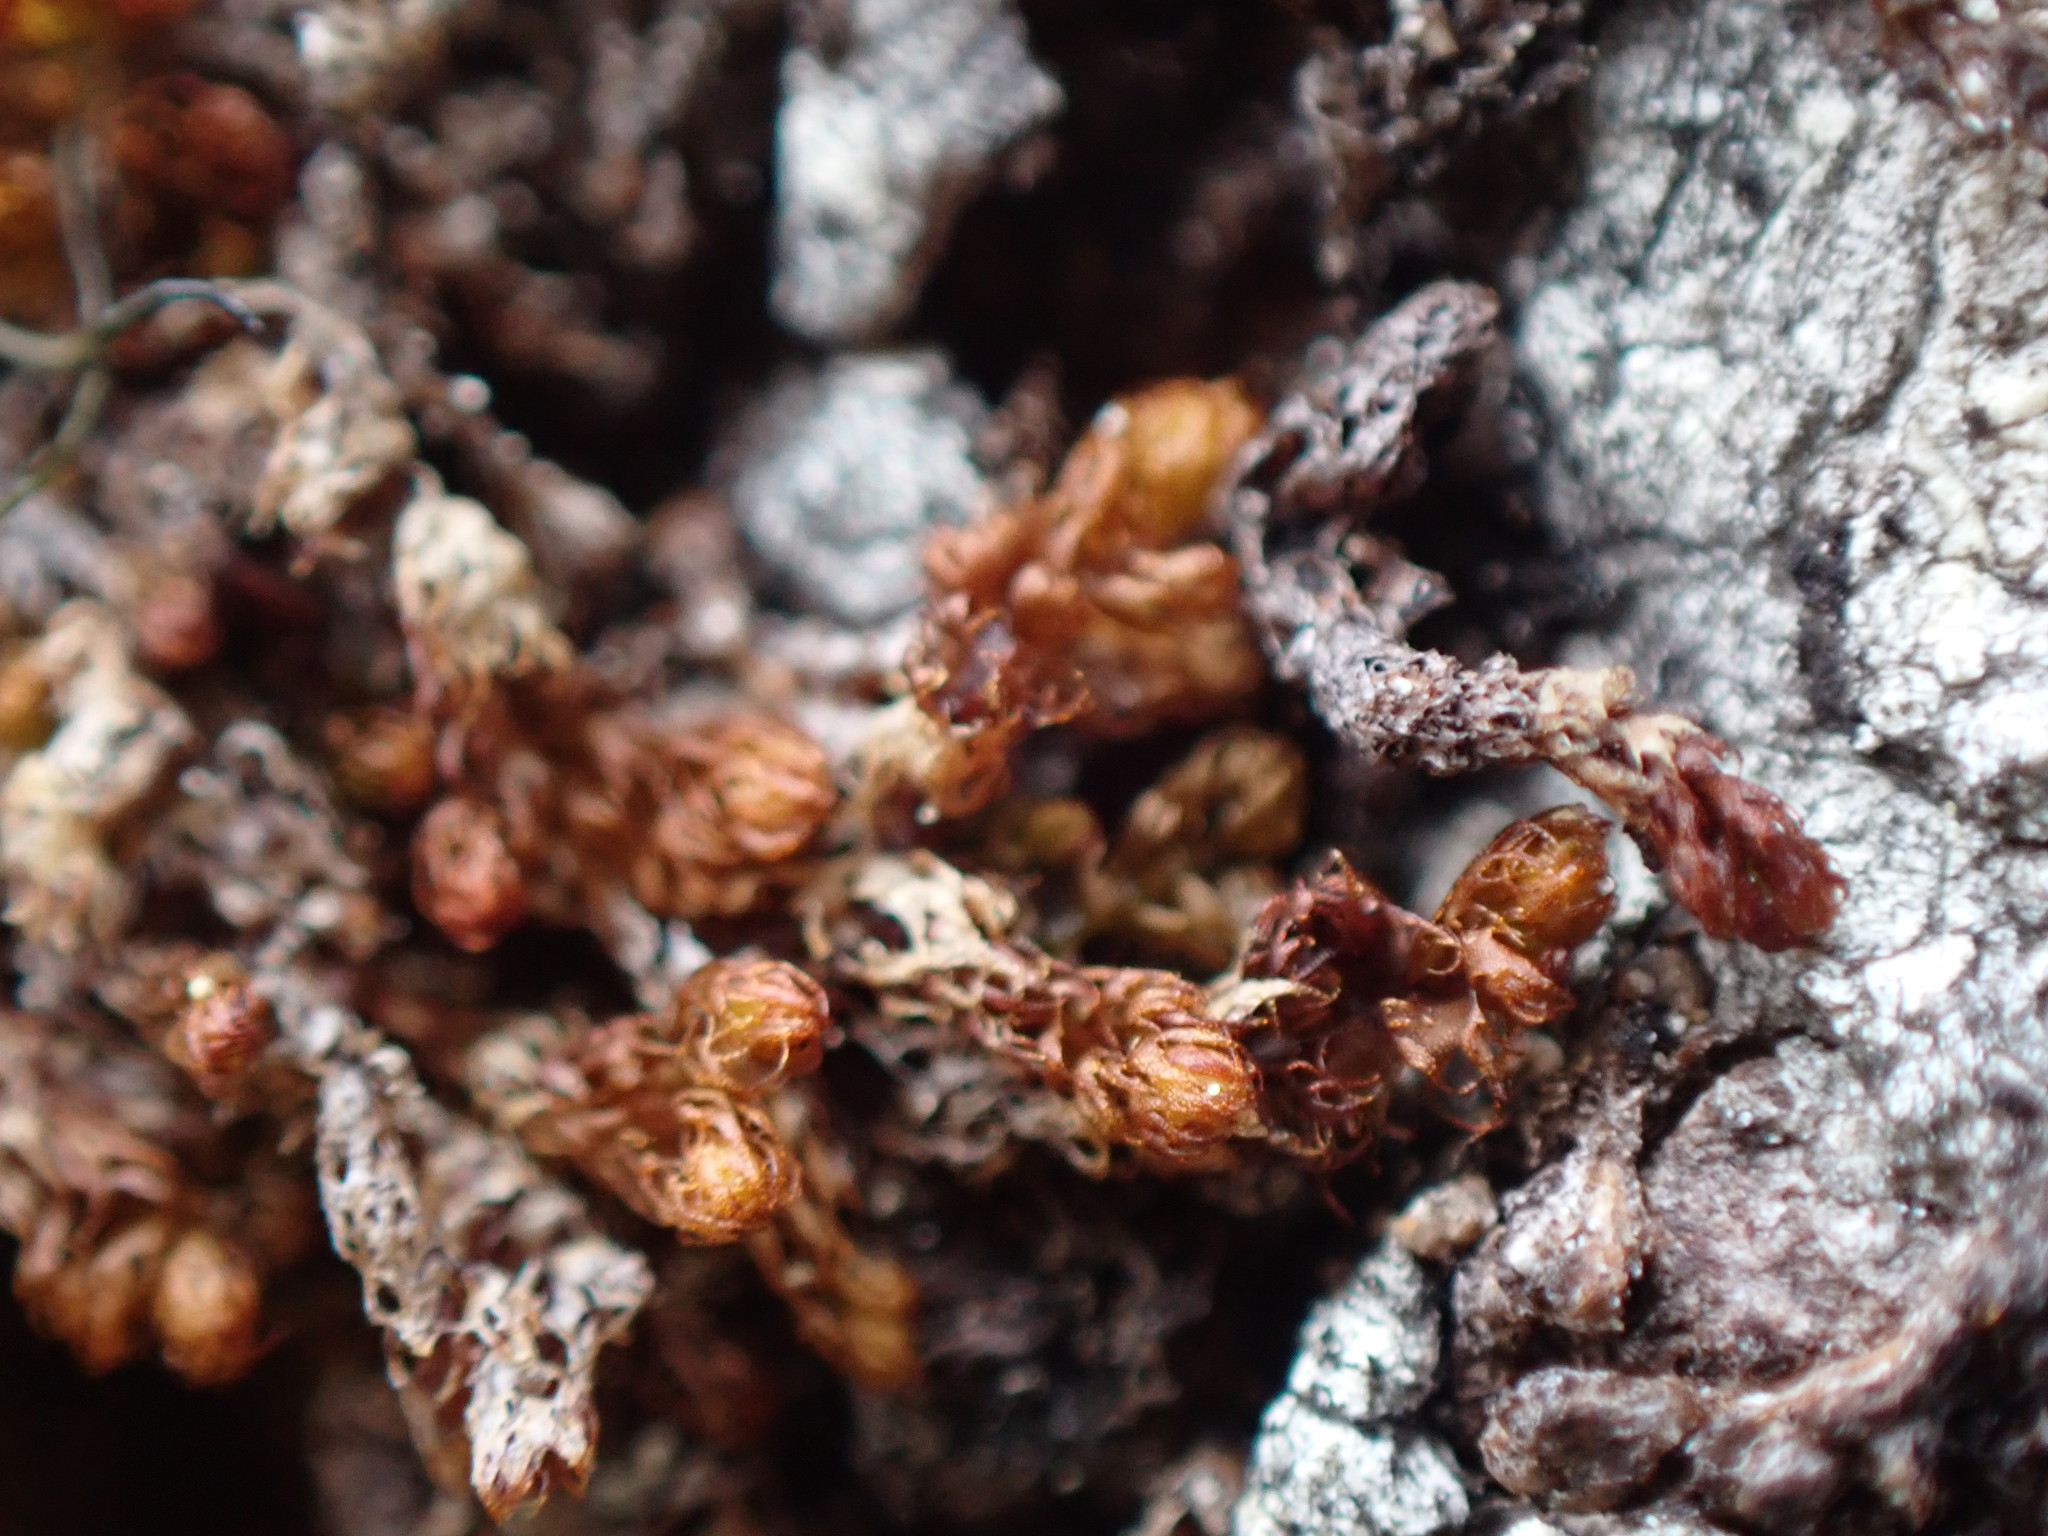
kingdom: Plantae
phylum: Marchantiophyta
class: Jungermanniopsida
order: Ptilidiales
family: Ptilidiaceae
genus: Ptilidium
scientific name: Ptilidium californicum
